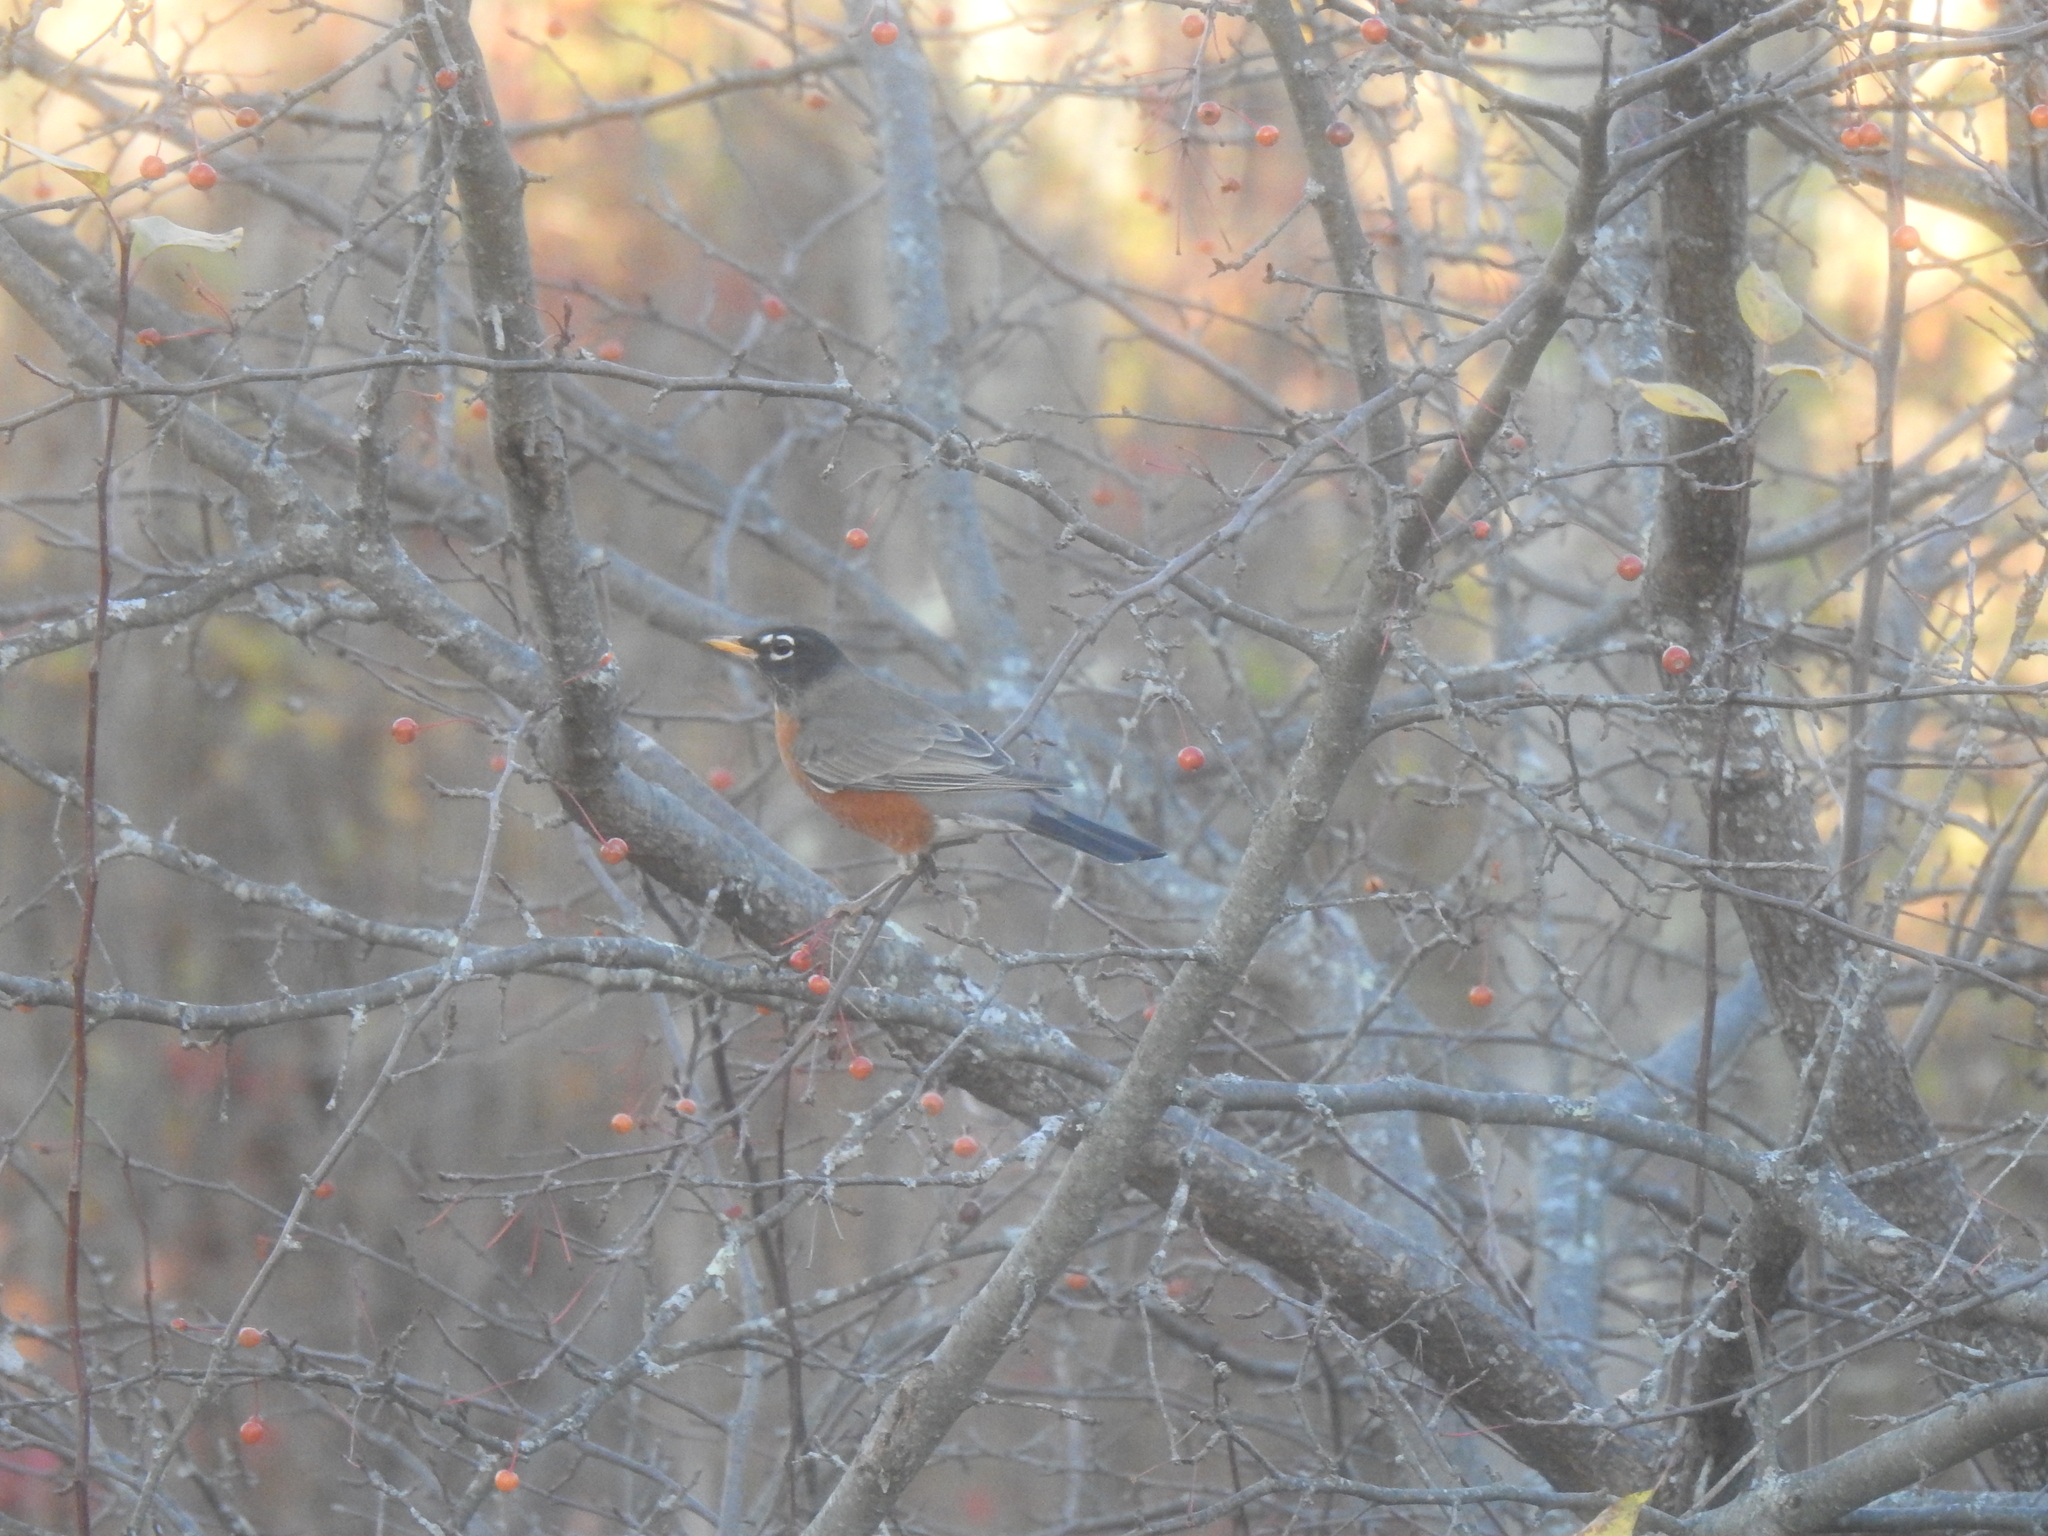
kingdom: Animalia
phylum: Chordata
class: Aves
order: Passeriformes
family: Turdidae
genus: Turdus
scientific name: Turdus migratorius
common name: American robin
